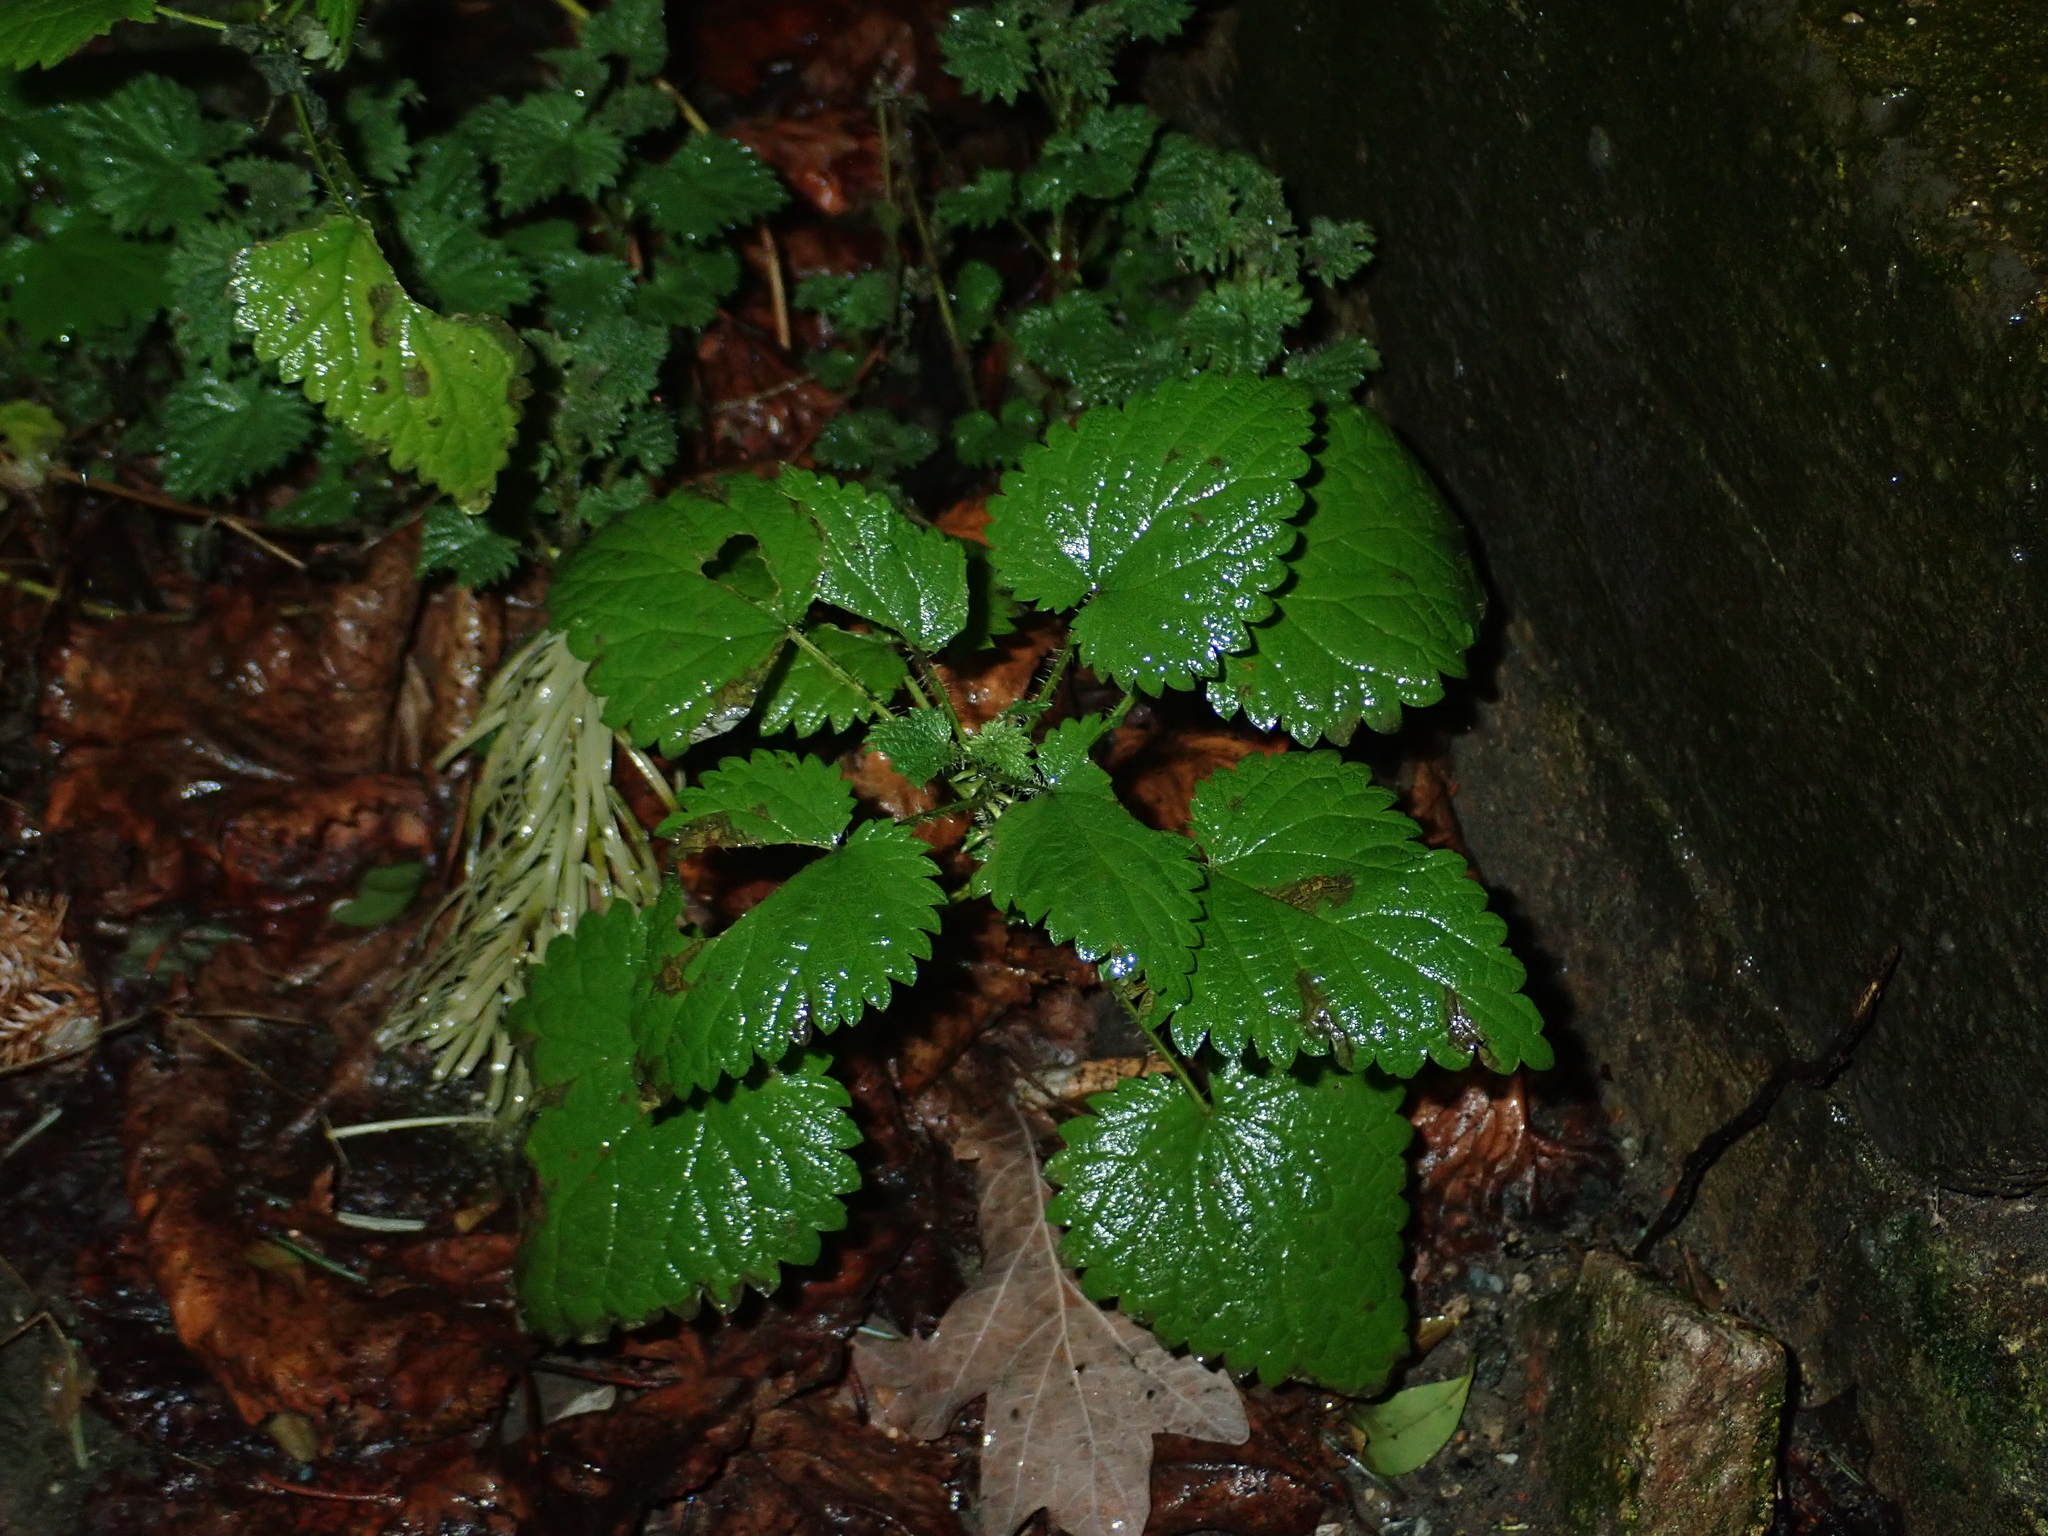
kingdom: Plantae
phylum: Tracheophyta
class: Magnoliopsida
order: Rosales
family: Urticaceae
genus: Urtica
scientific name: Urtica dioica
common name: Common nettle
